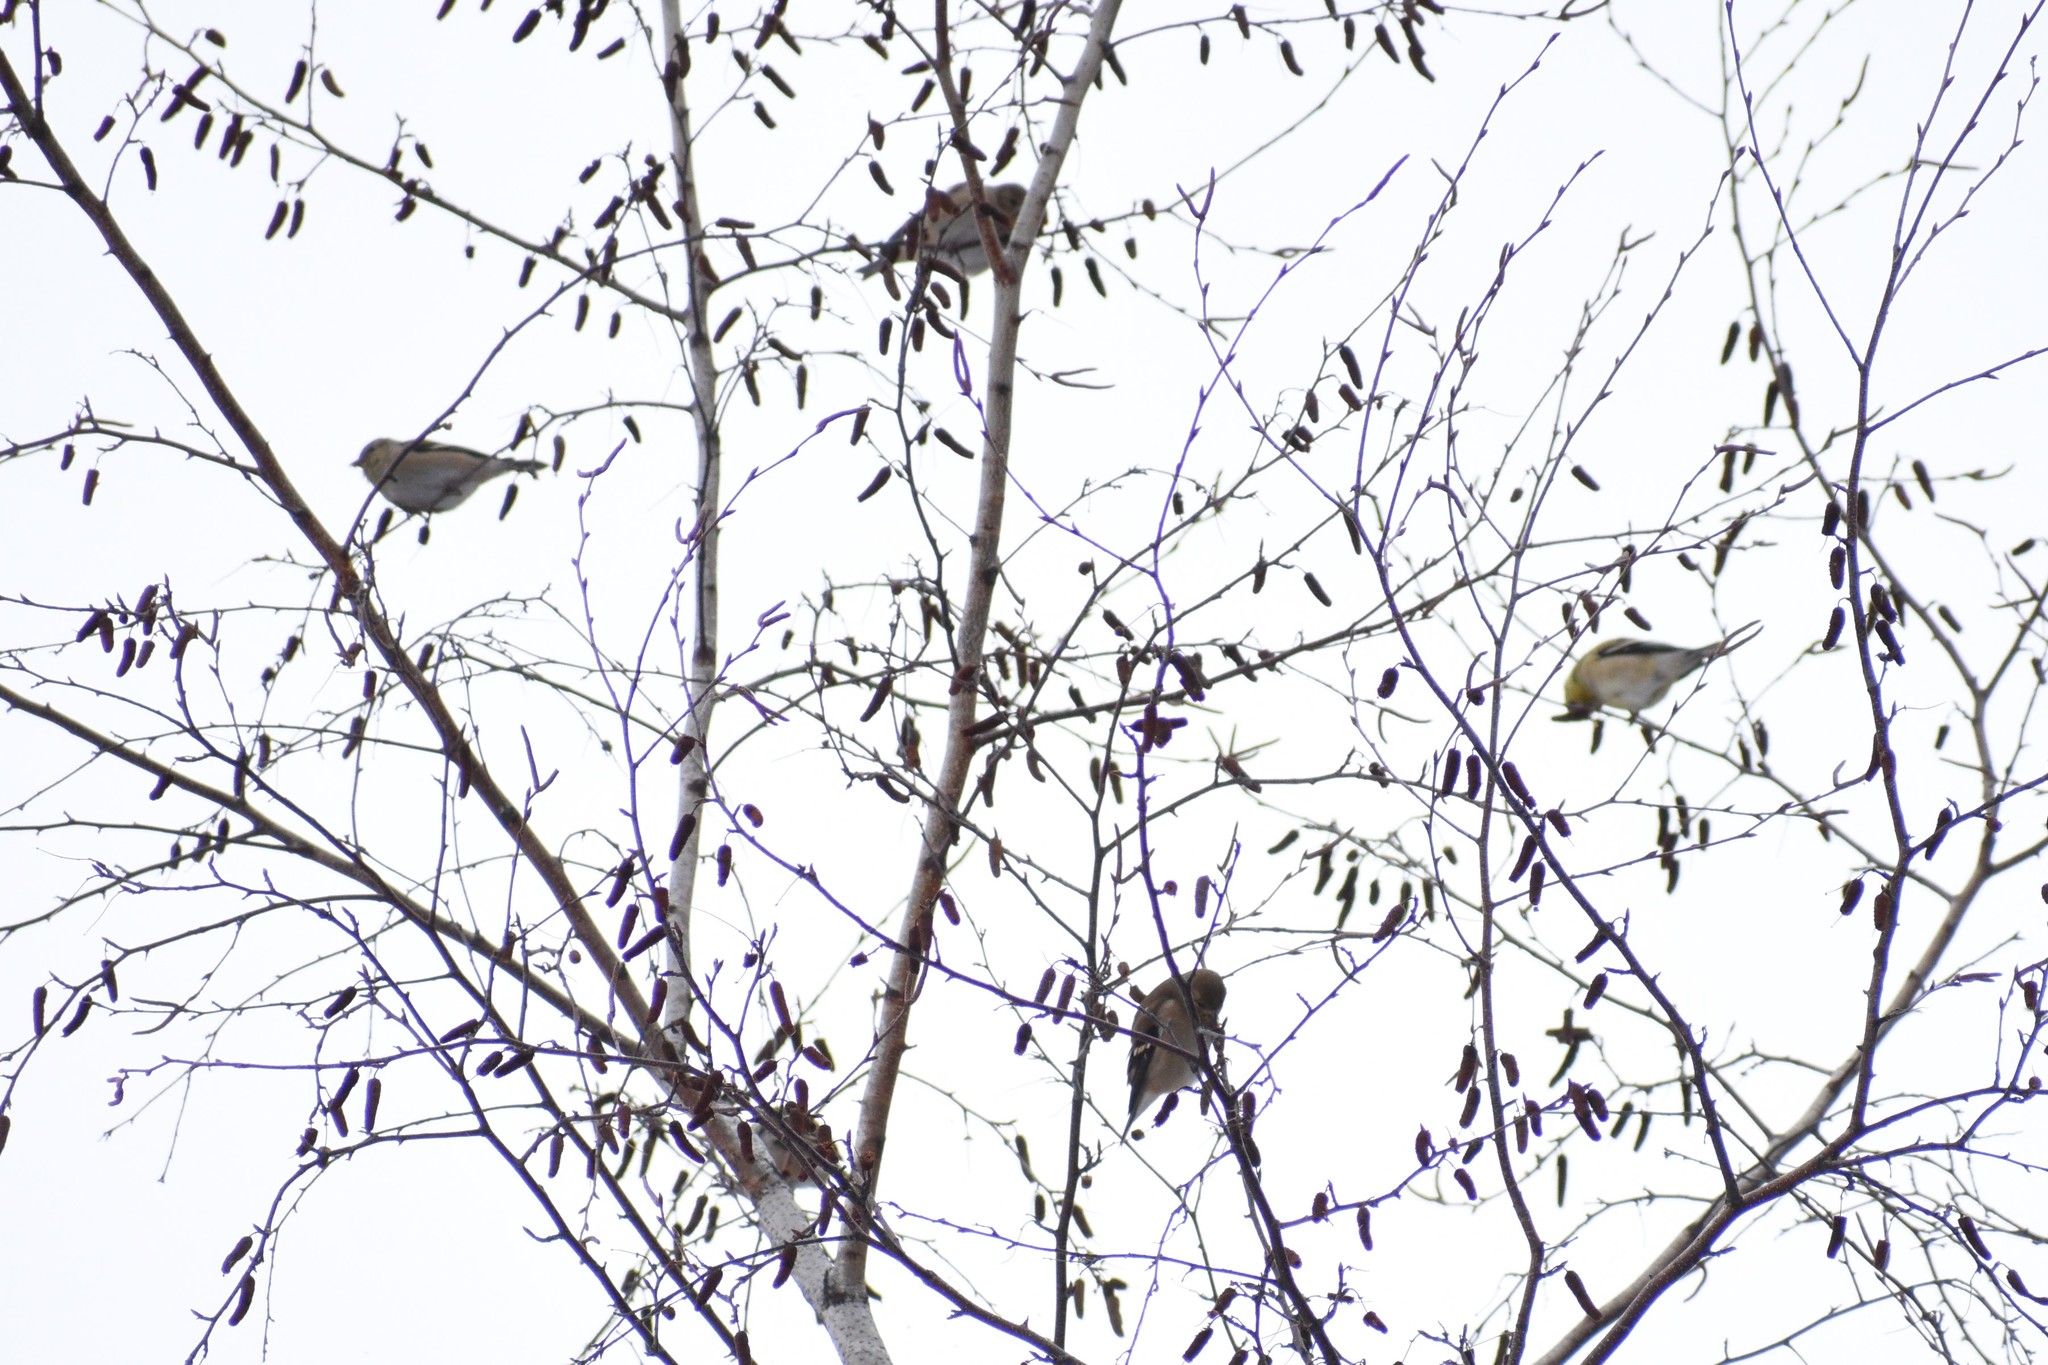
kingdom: Animalia
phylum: Chordata
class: Aves
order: Passeriformes
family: Fringillidae
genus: Spinus
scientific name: Spinus tristis
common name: American goldfinch
